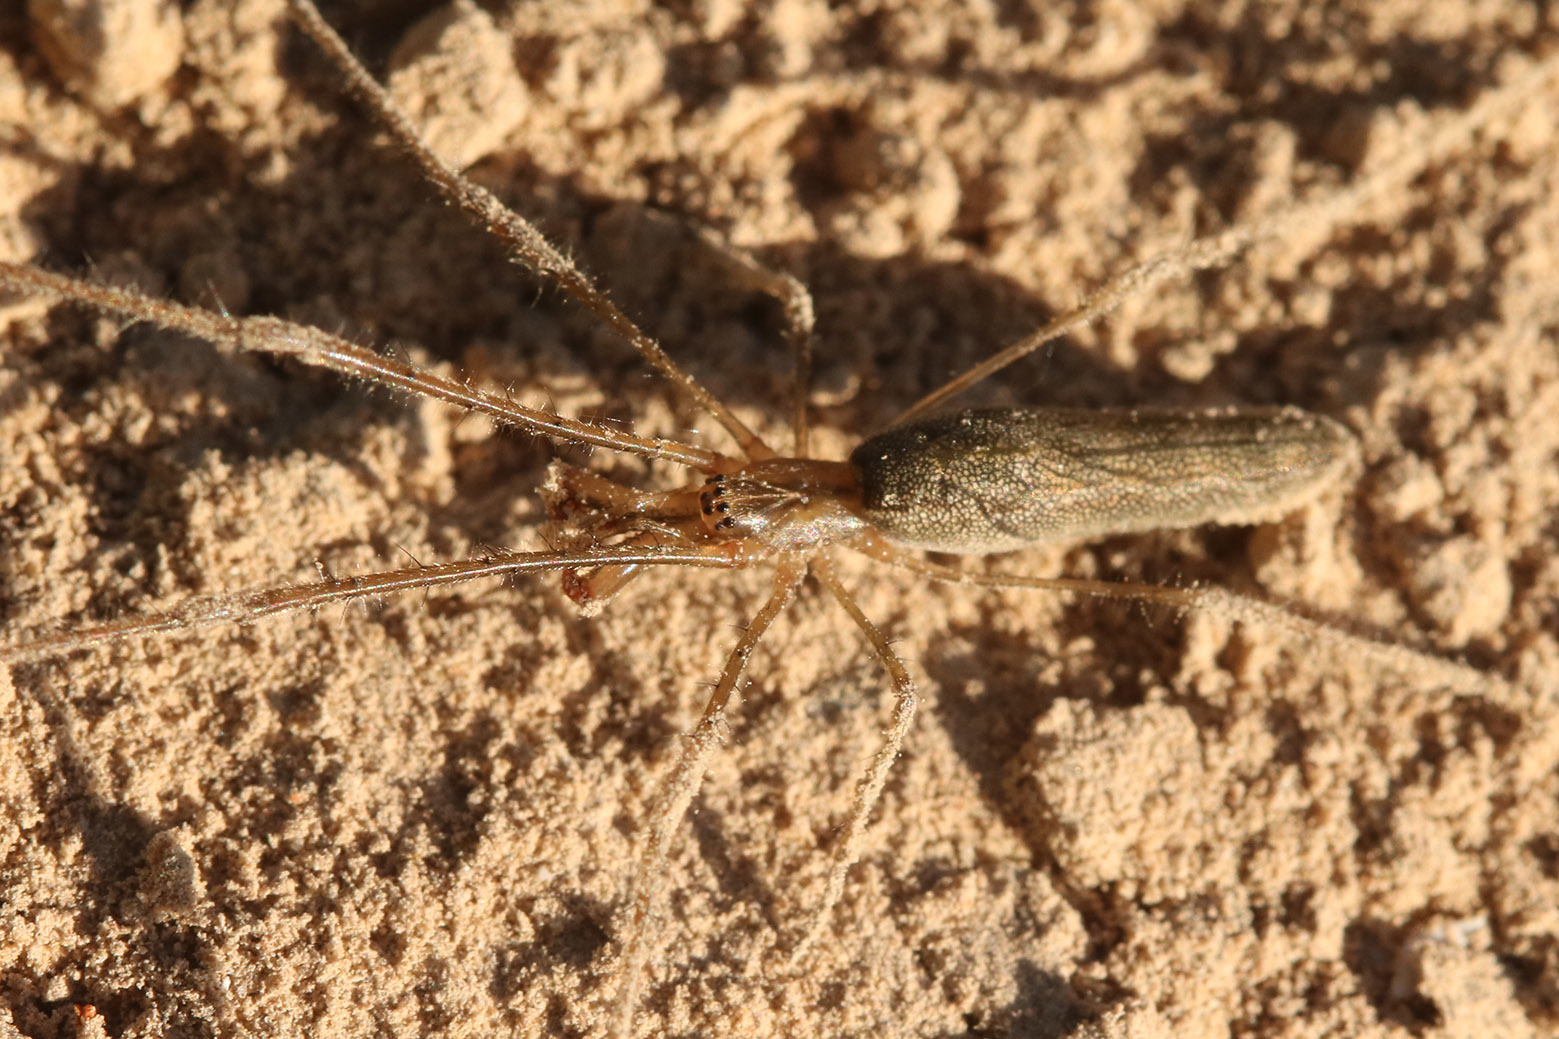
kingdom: Animalia
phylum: Arthropoda
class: Arachnida
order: Araneae
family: Tetragnathidae
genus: Tetragnatha
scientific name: Tetragnatha
